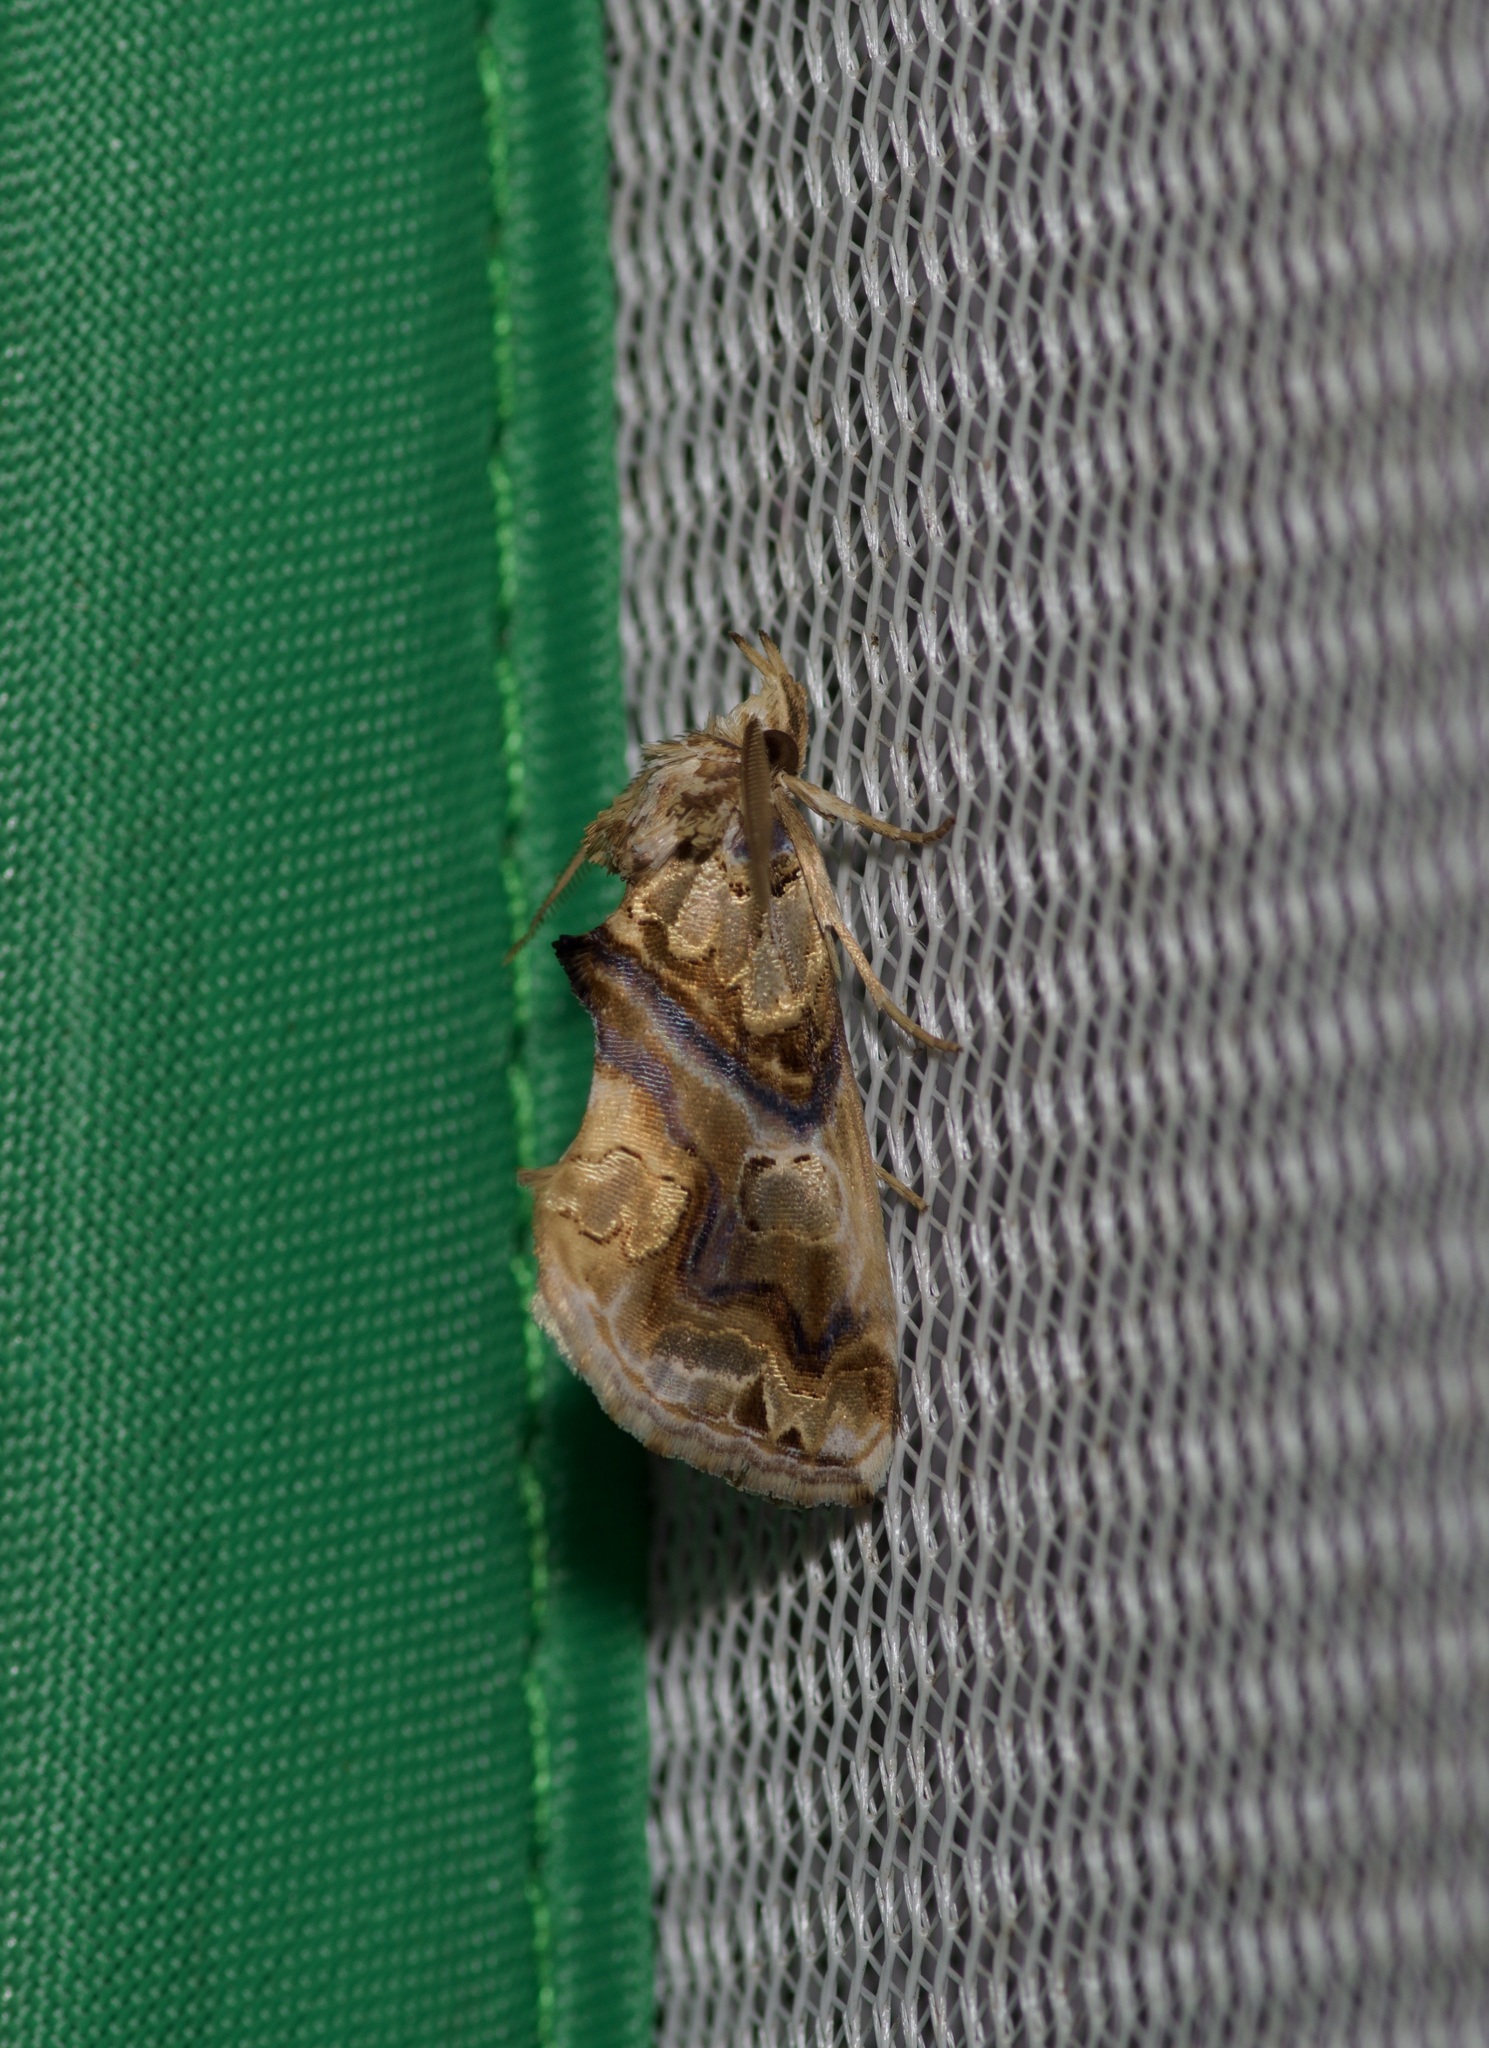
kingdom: Animalia
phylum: Arthropoda
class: Insecta
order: Lepidoptera
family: Erebidae
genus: Plusiodonta
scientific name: Plusiodonta compressipalpis
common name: Moonseed moth
